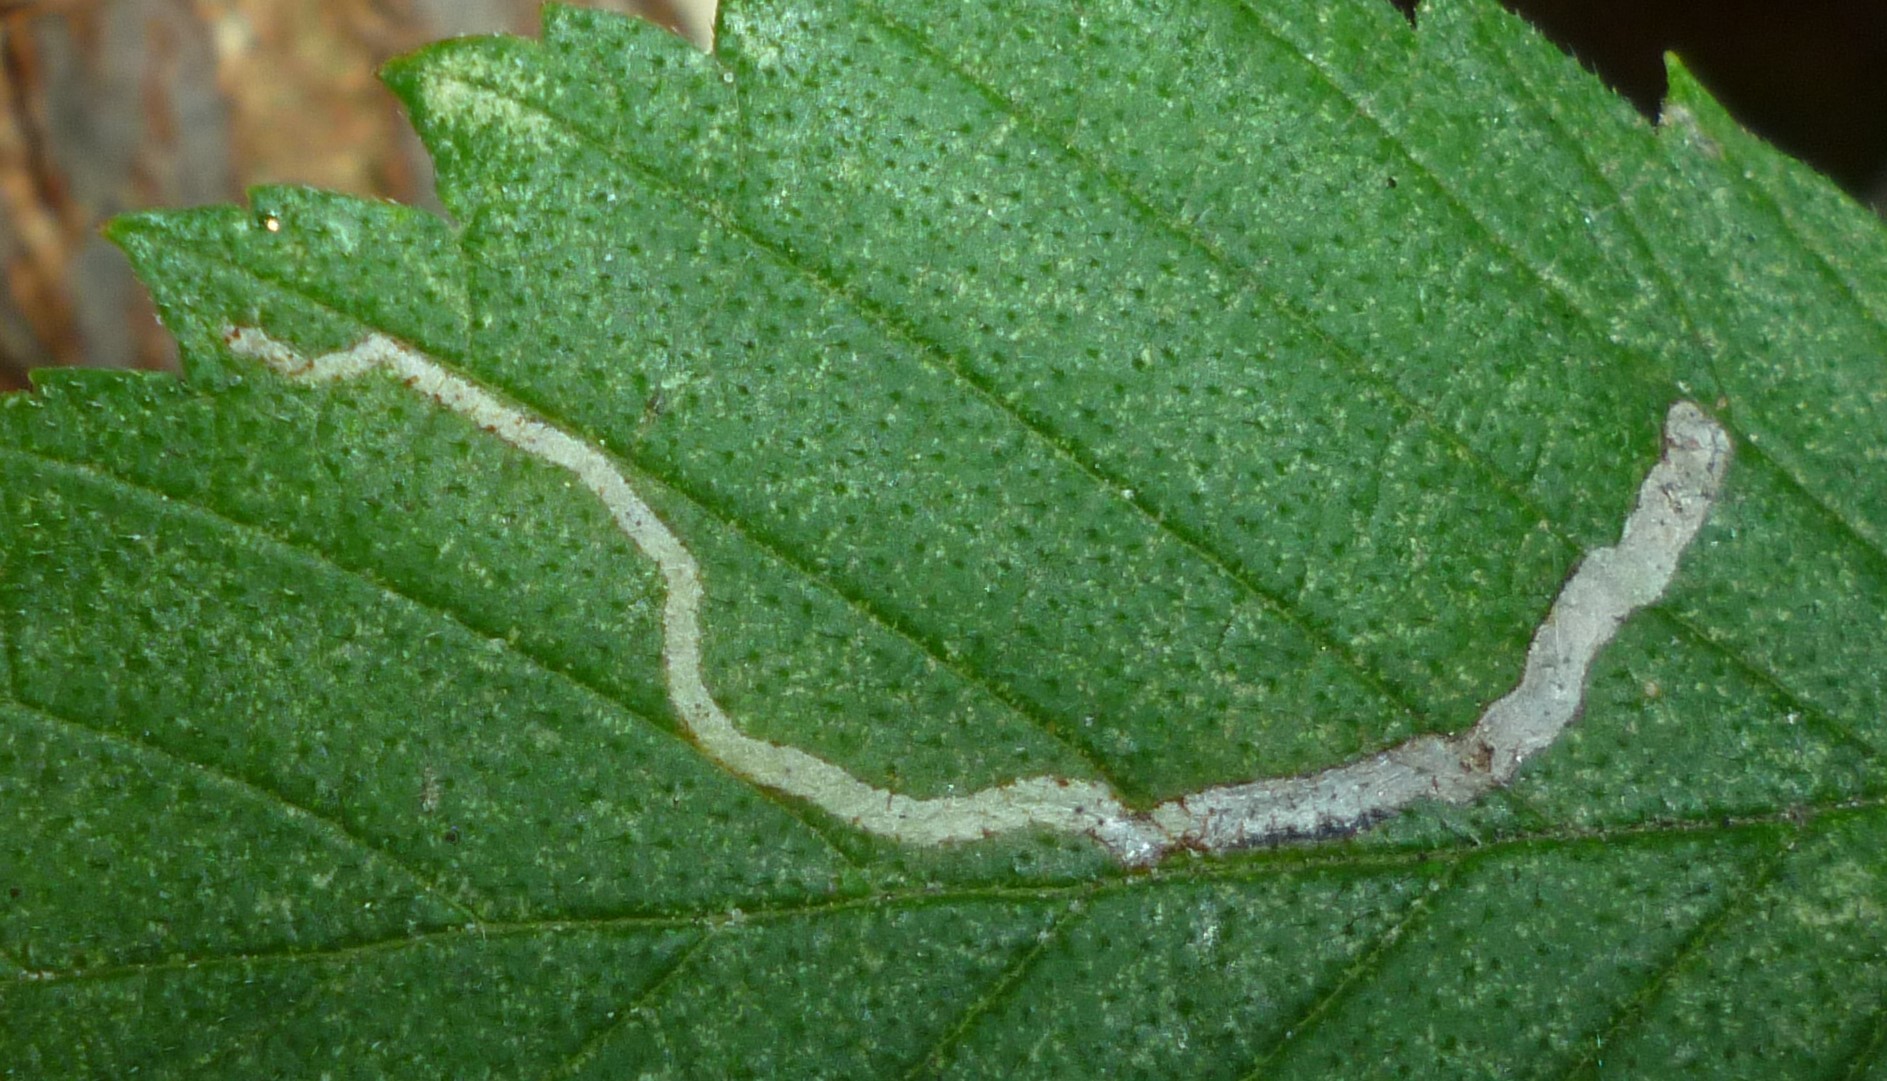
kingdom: Animalia
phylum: Arthropoda
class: Insecta
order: Diptera
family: Agromyzidae
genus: Agromyza
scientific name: Agromyza aristata
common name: Elm agromyzid leafminer
